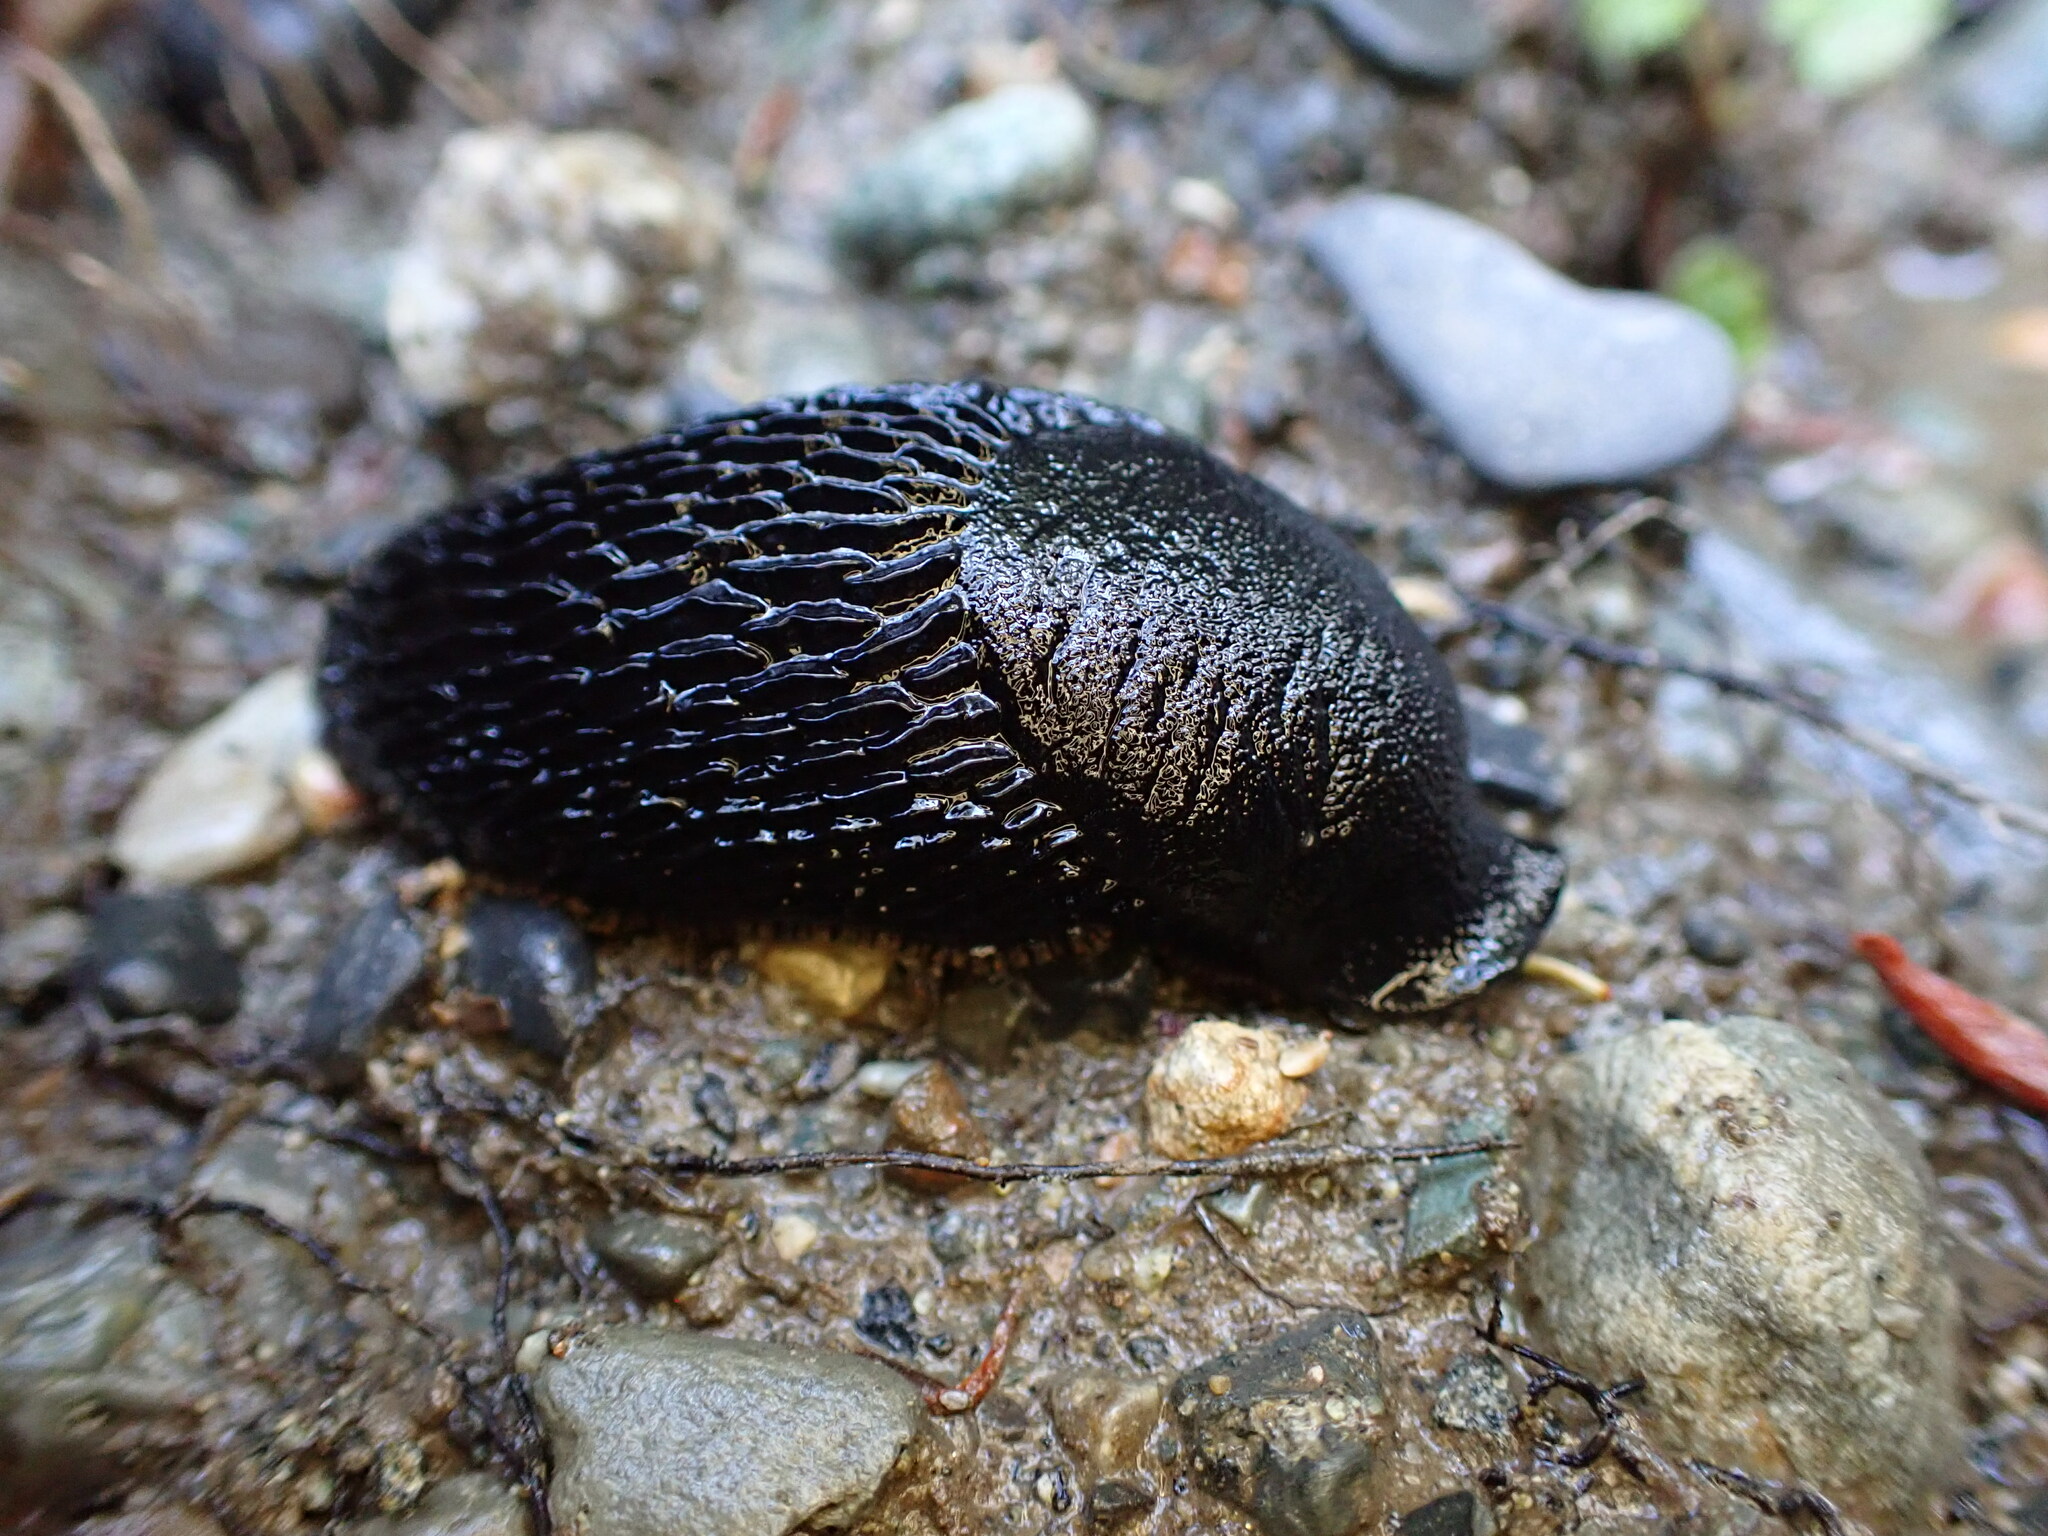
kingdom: Animalia
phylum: Mollusca
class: Gastropoda
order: Stylommatophora
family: Arionidae
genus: Arion
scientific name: Arion
